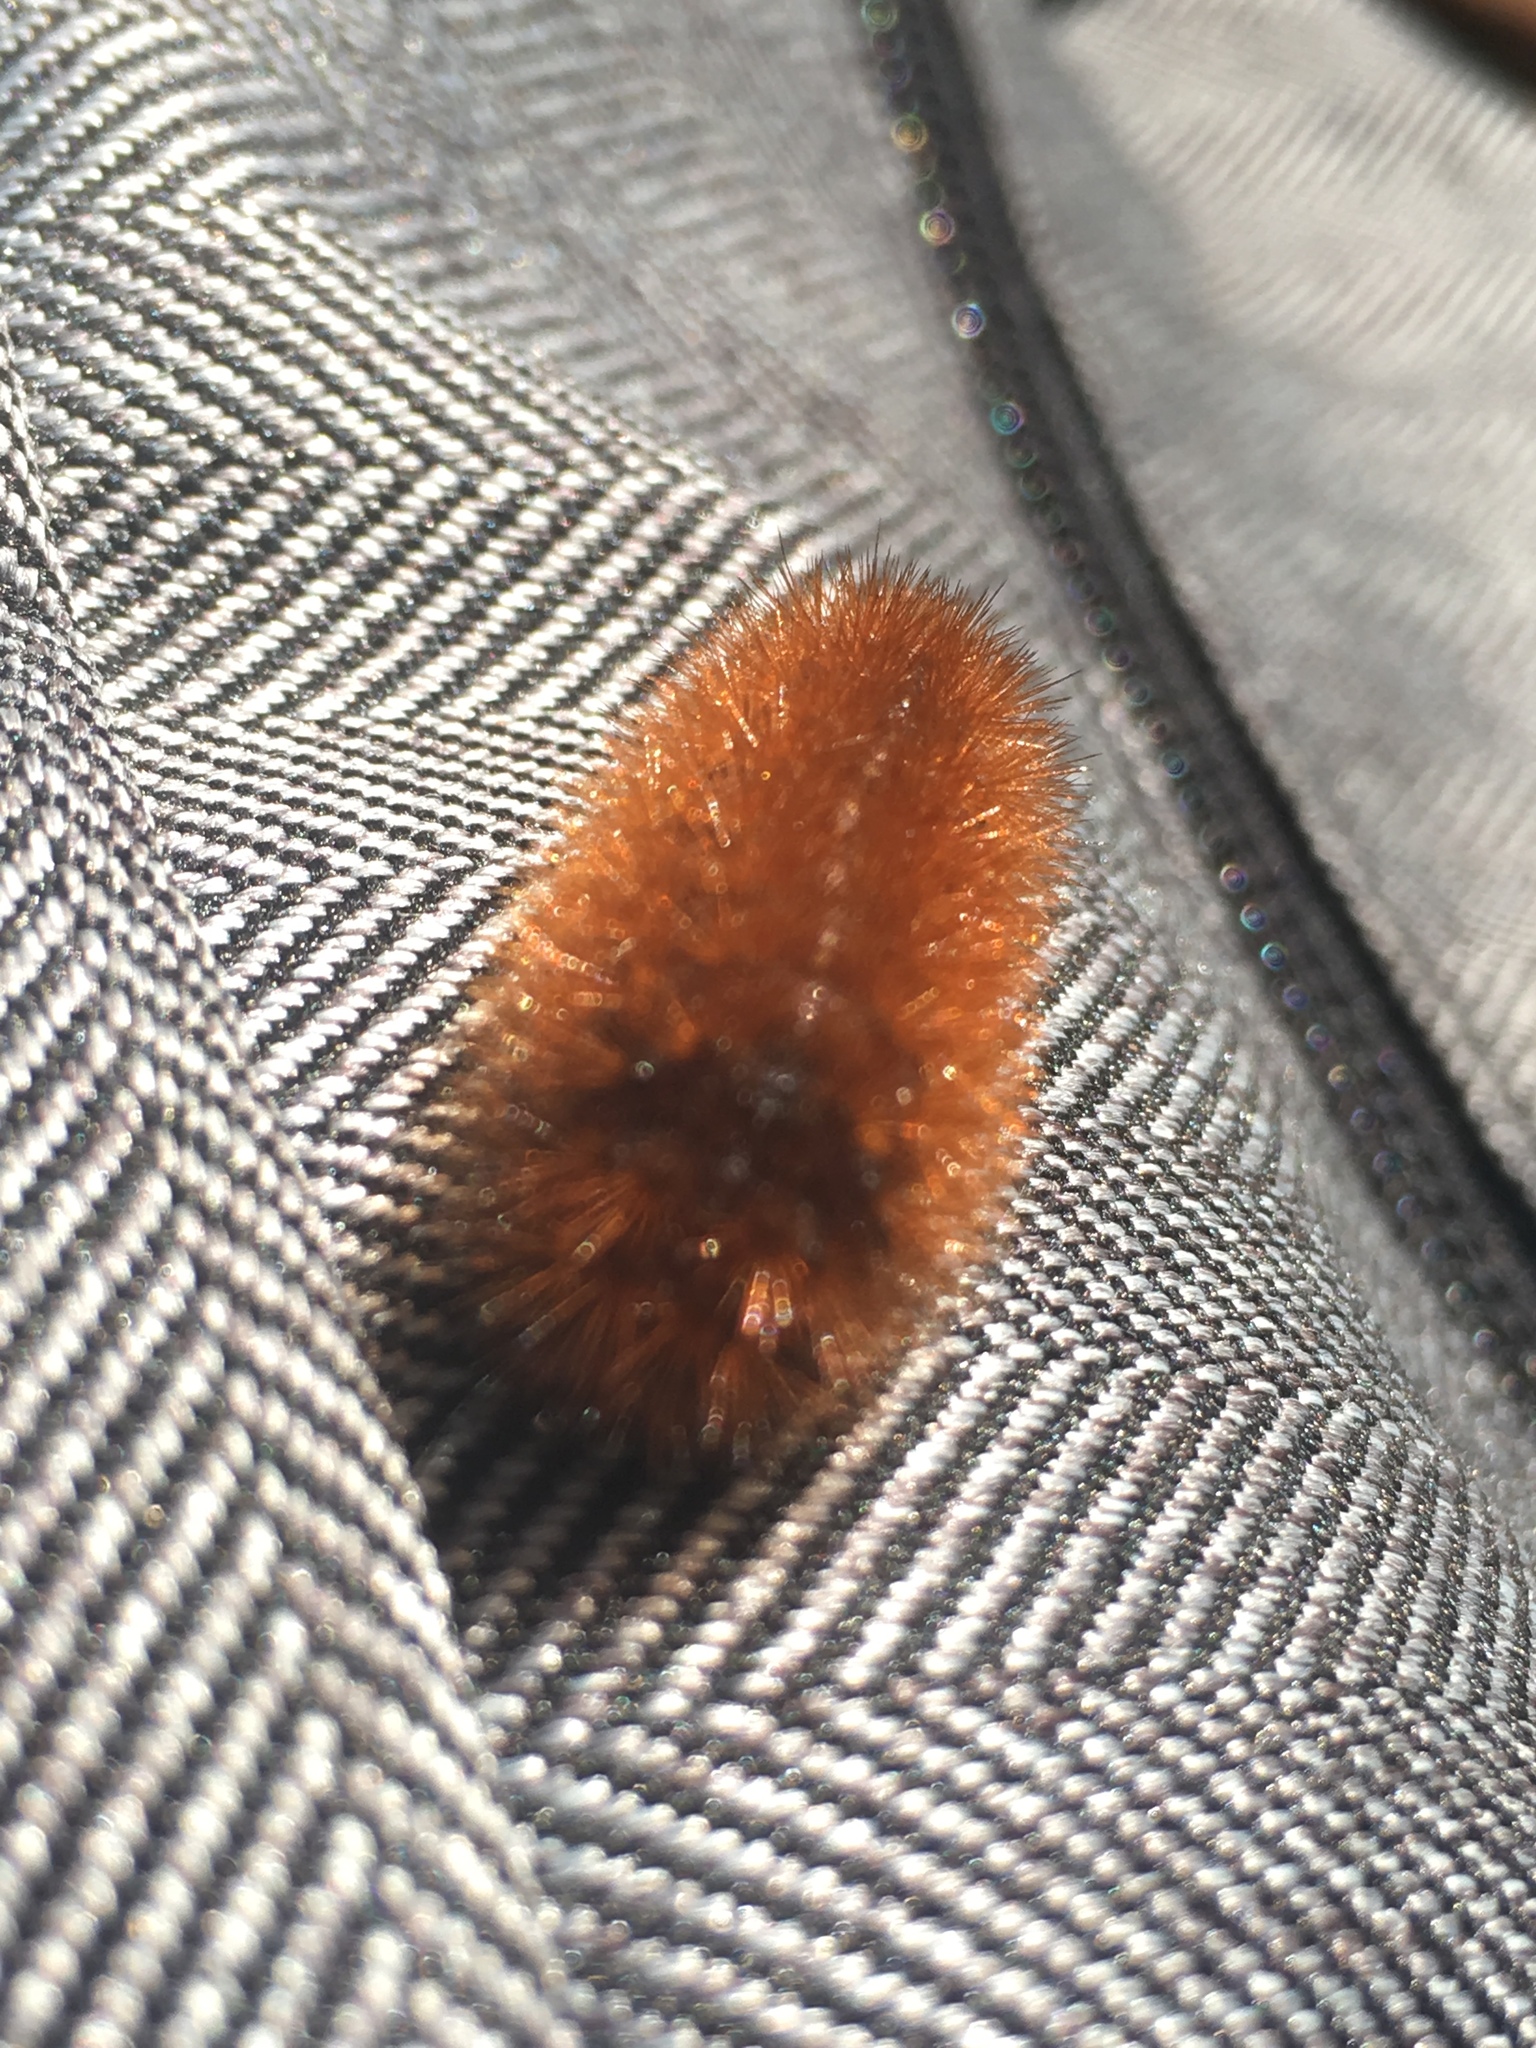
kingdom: Animalia
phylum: Arthropoda
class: Insecta
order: Lepidoptera
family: Erebidae
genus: Pyrrharctia
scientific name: Pyrrharctia isabella
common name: Isabella tiger moth
